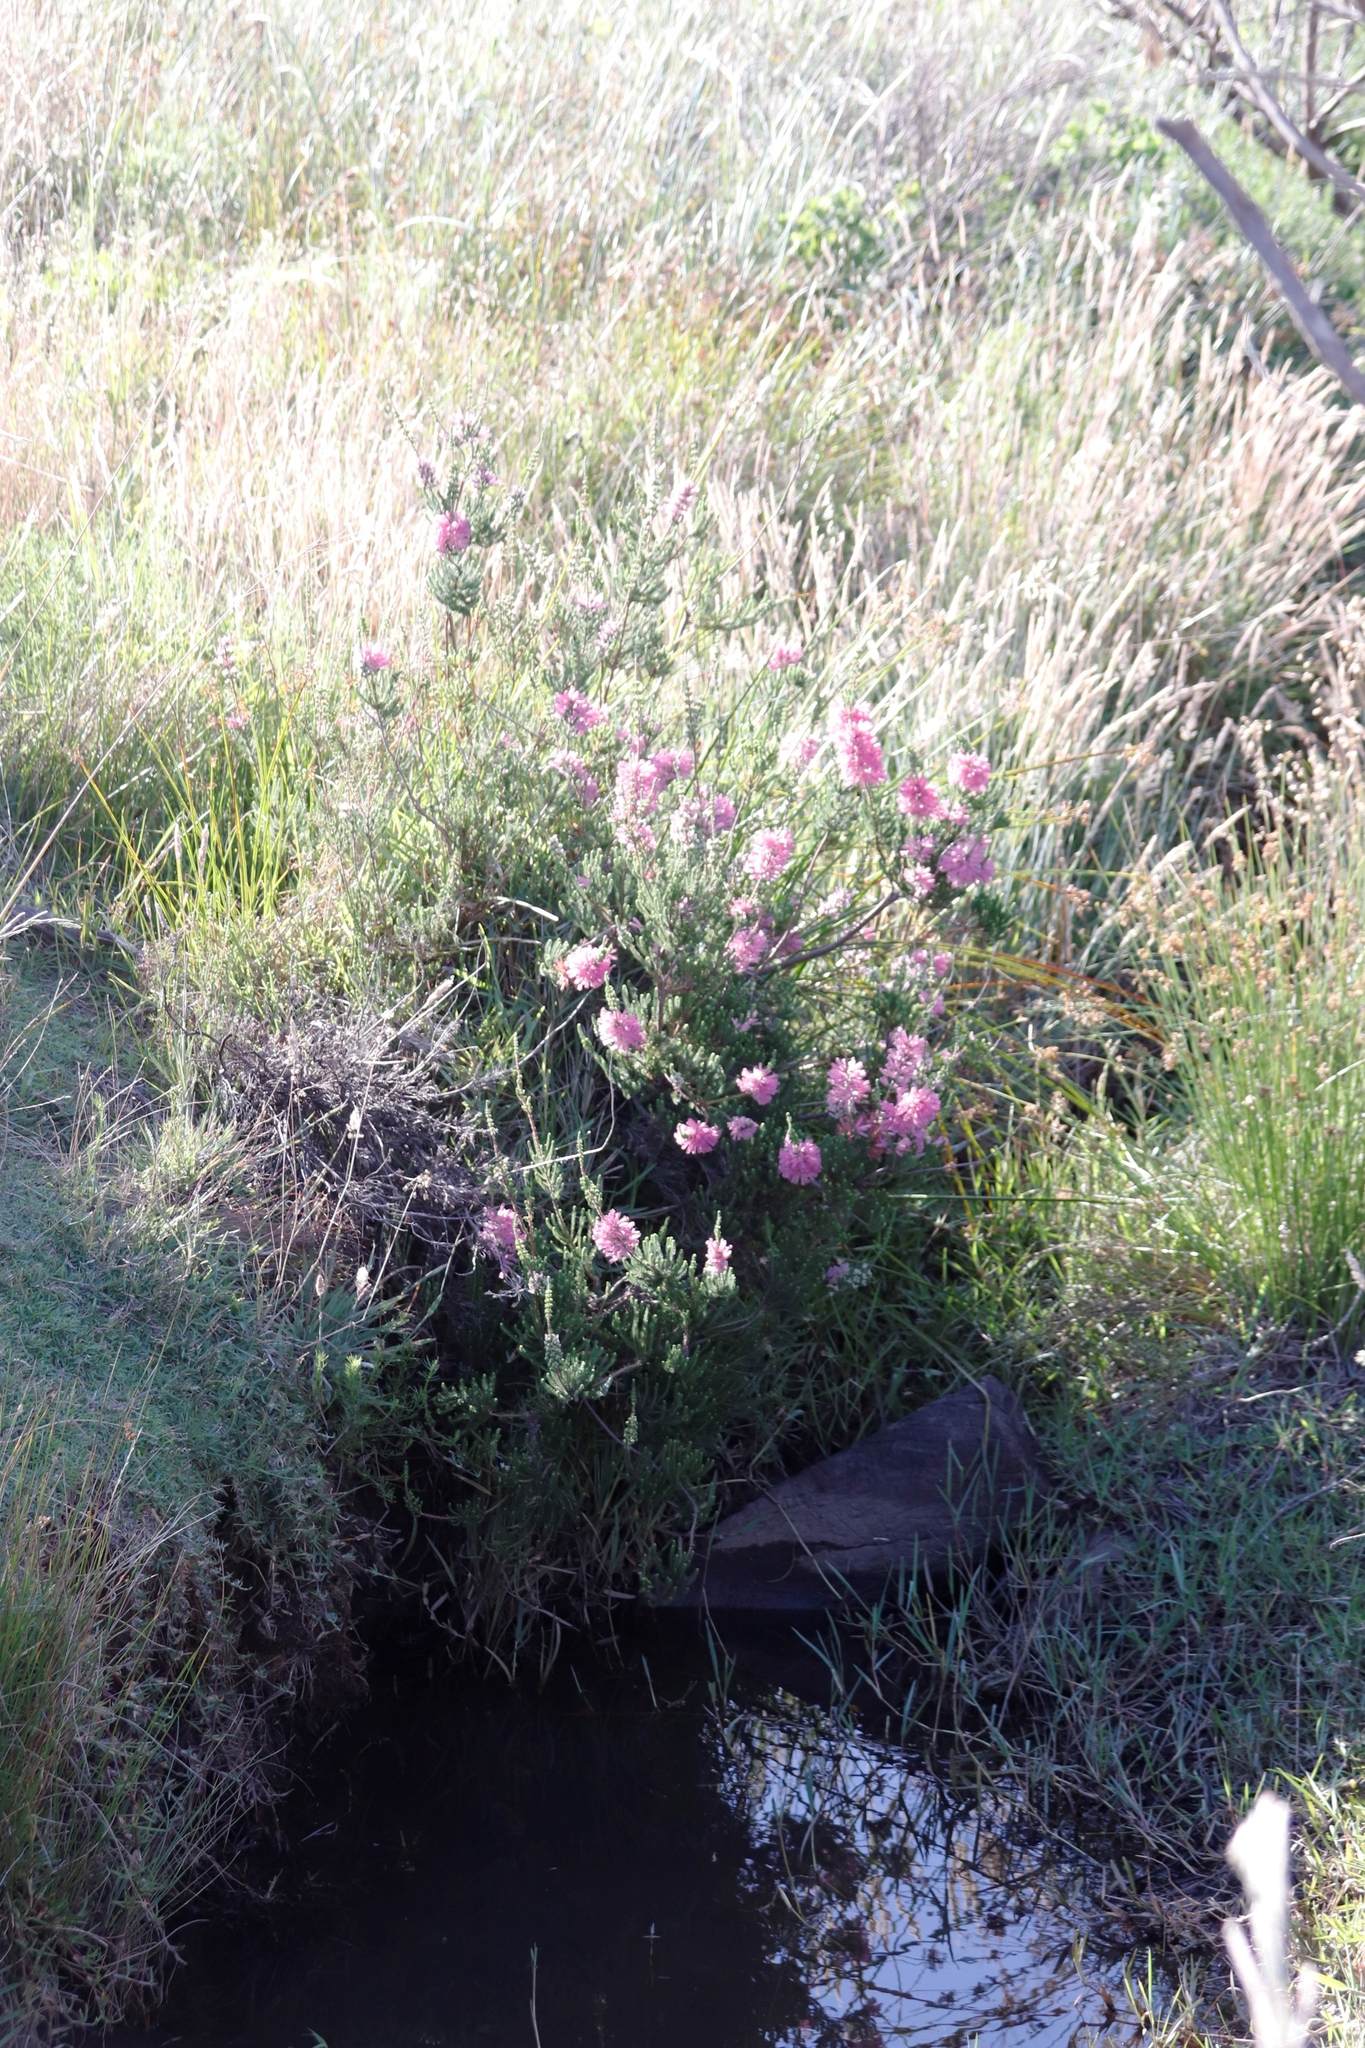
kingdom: Plantae
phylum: Tracheophyta
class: Magnoliopsida
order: Ericales
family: Ericaceae
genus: Erica
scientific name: Erica verticillata
